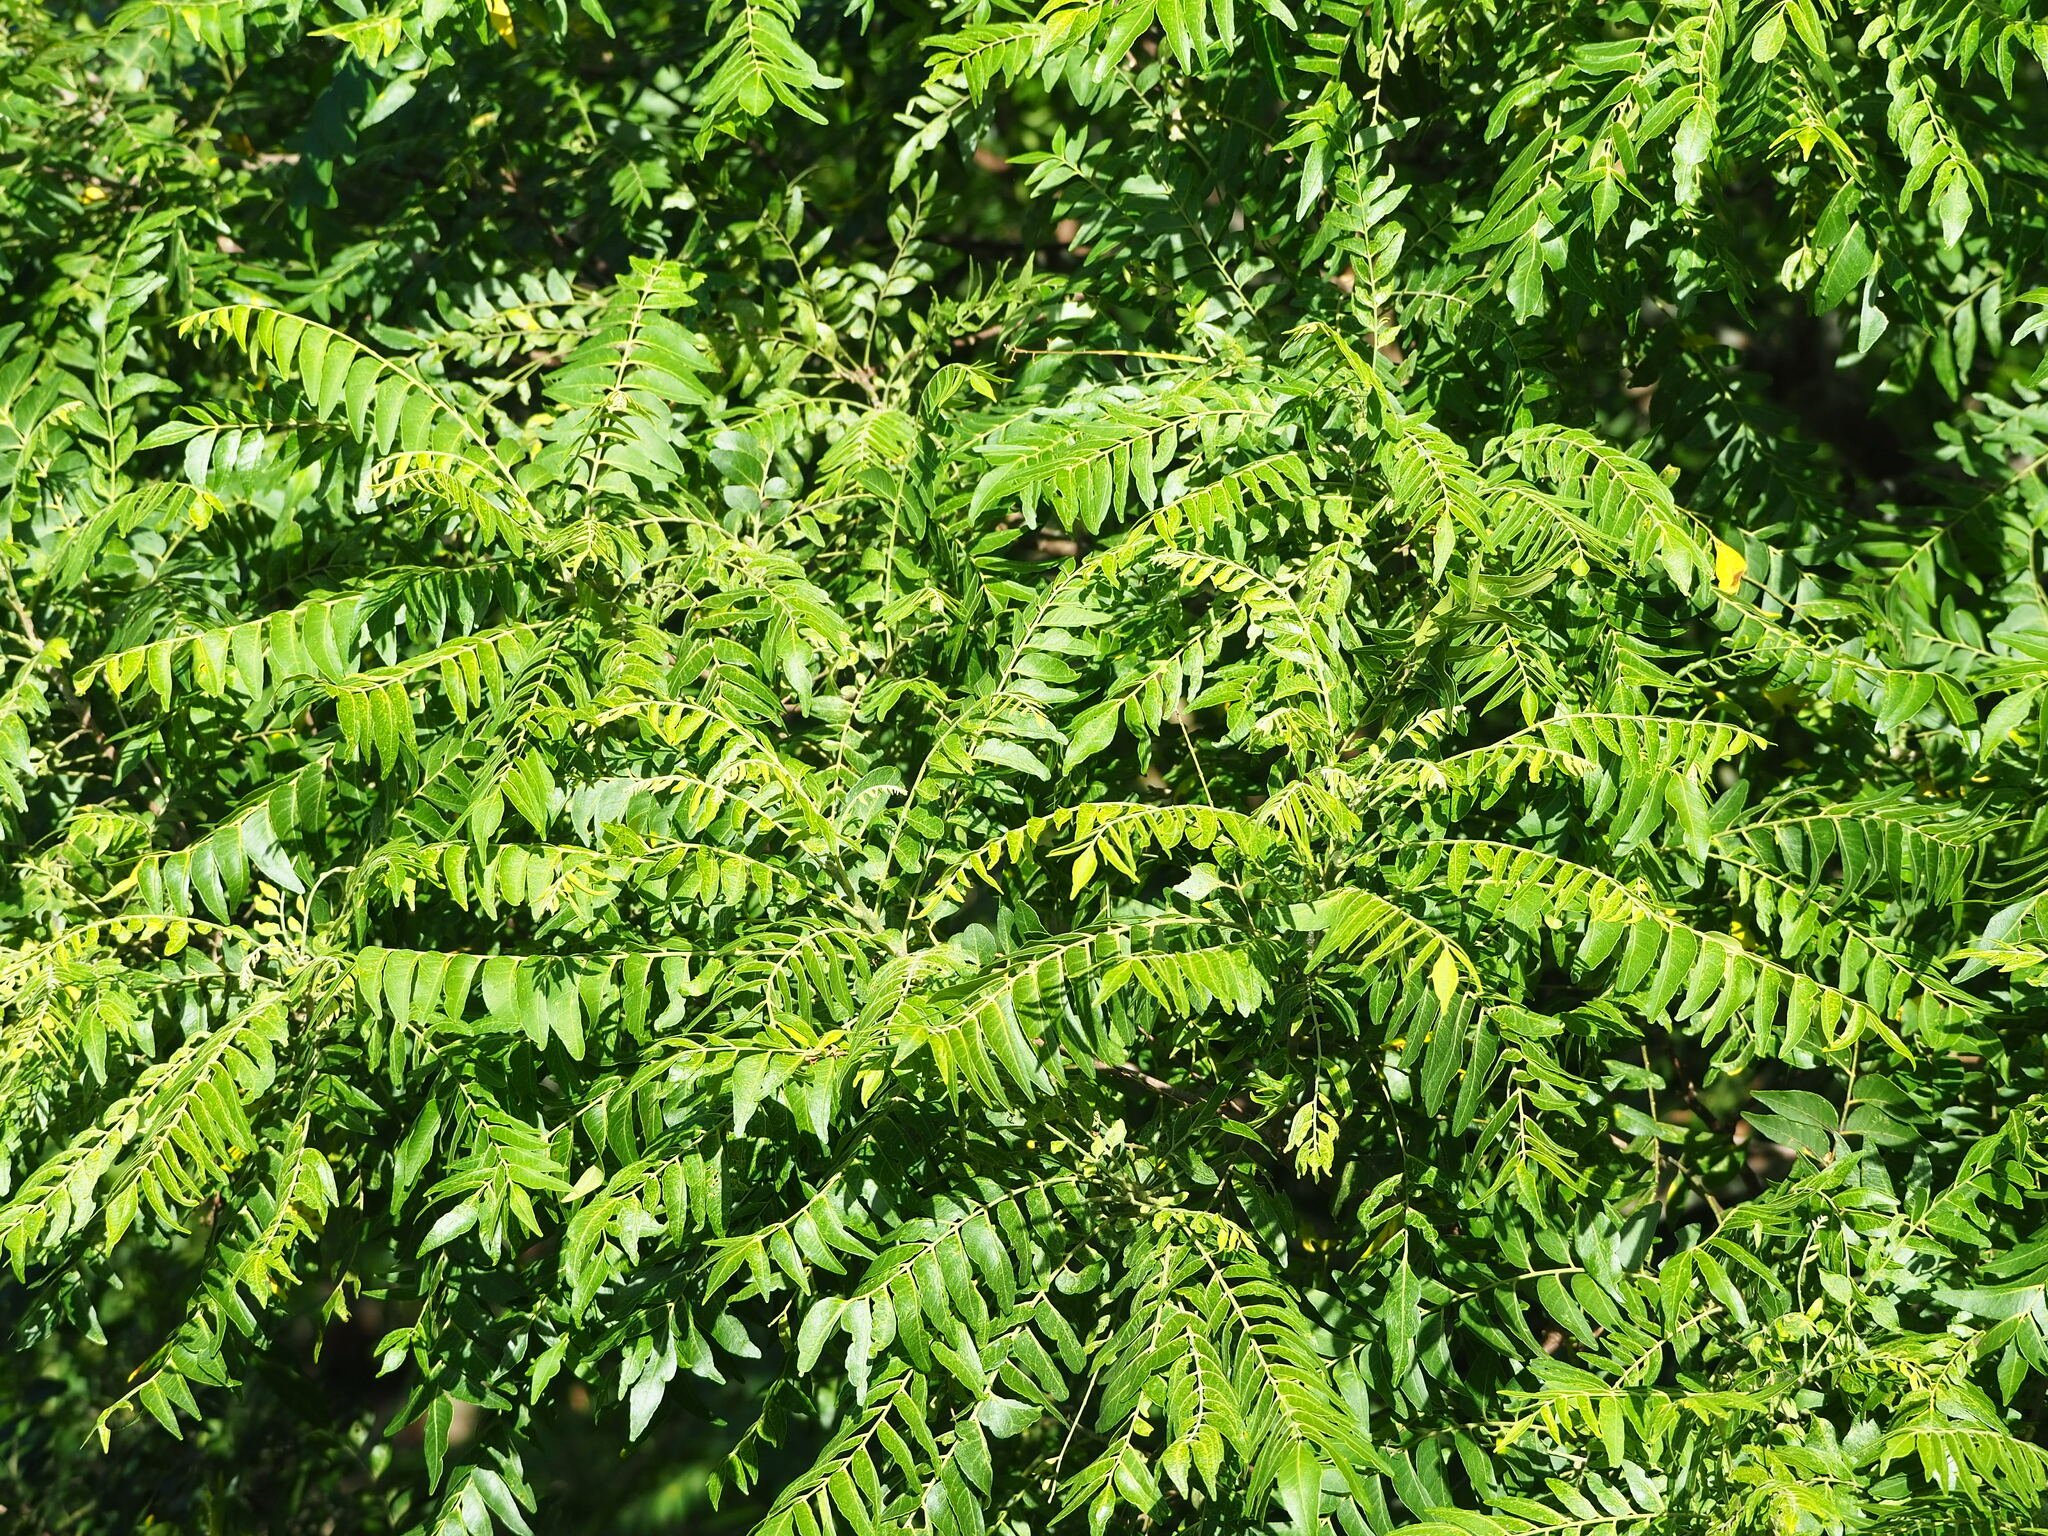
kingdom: Plantae
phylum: Tracheophyta
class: Magnoliopsida
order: Sapindales
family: Rutaceae
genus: Clausena
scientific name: Clausena excavata
